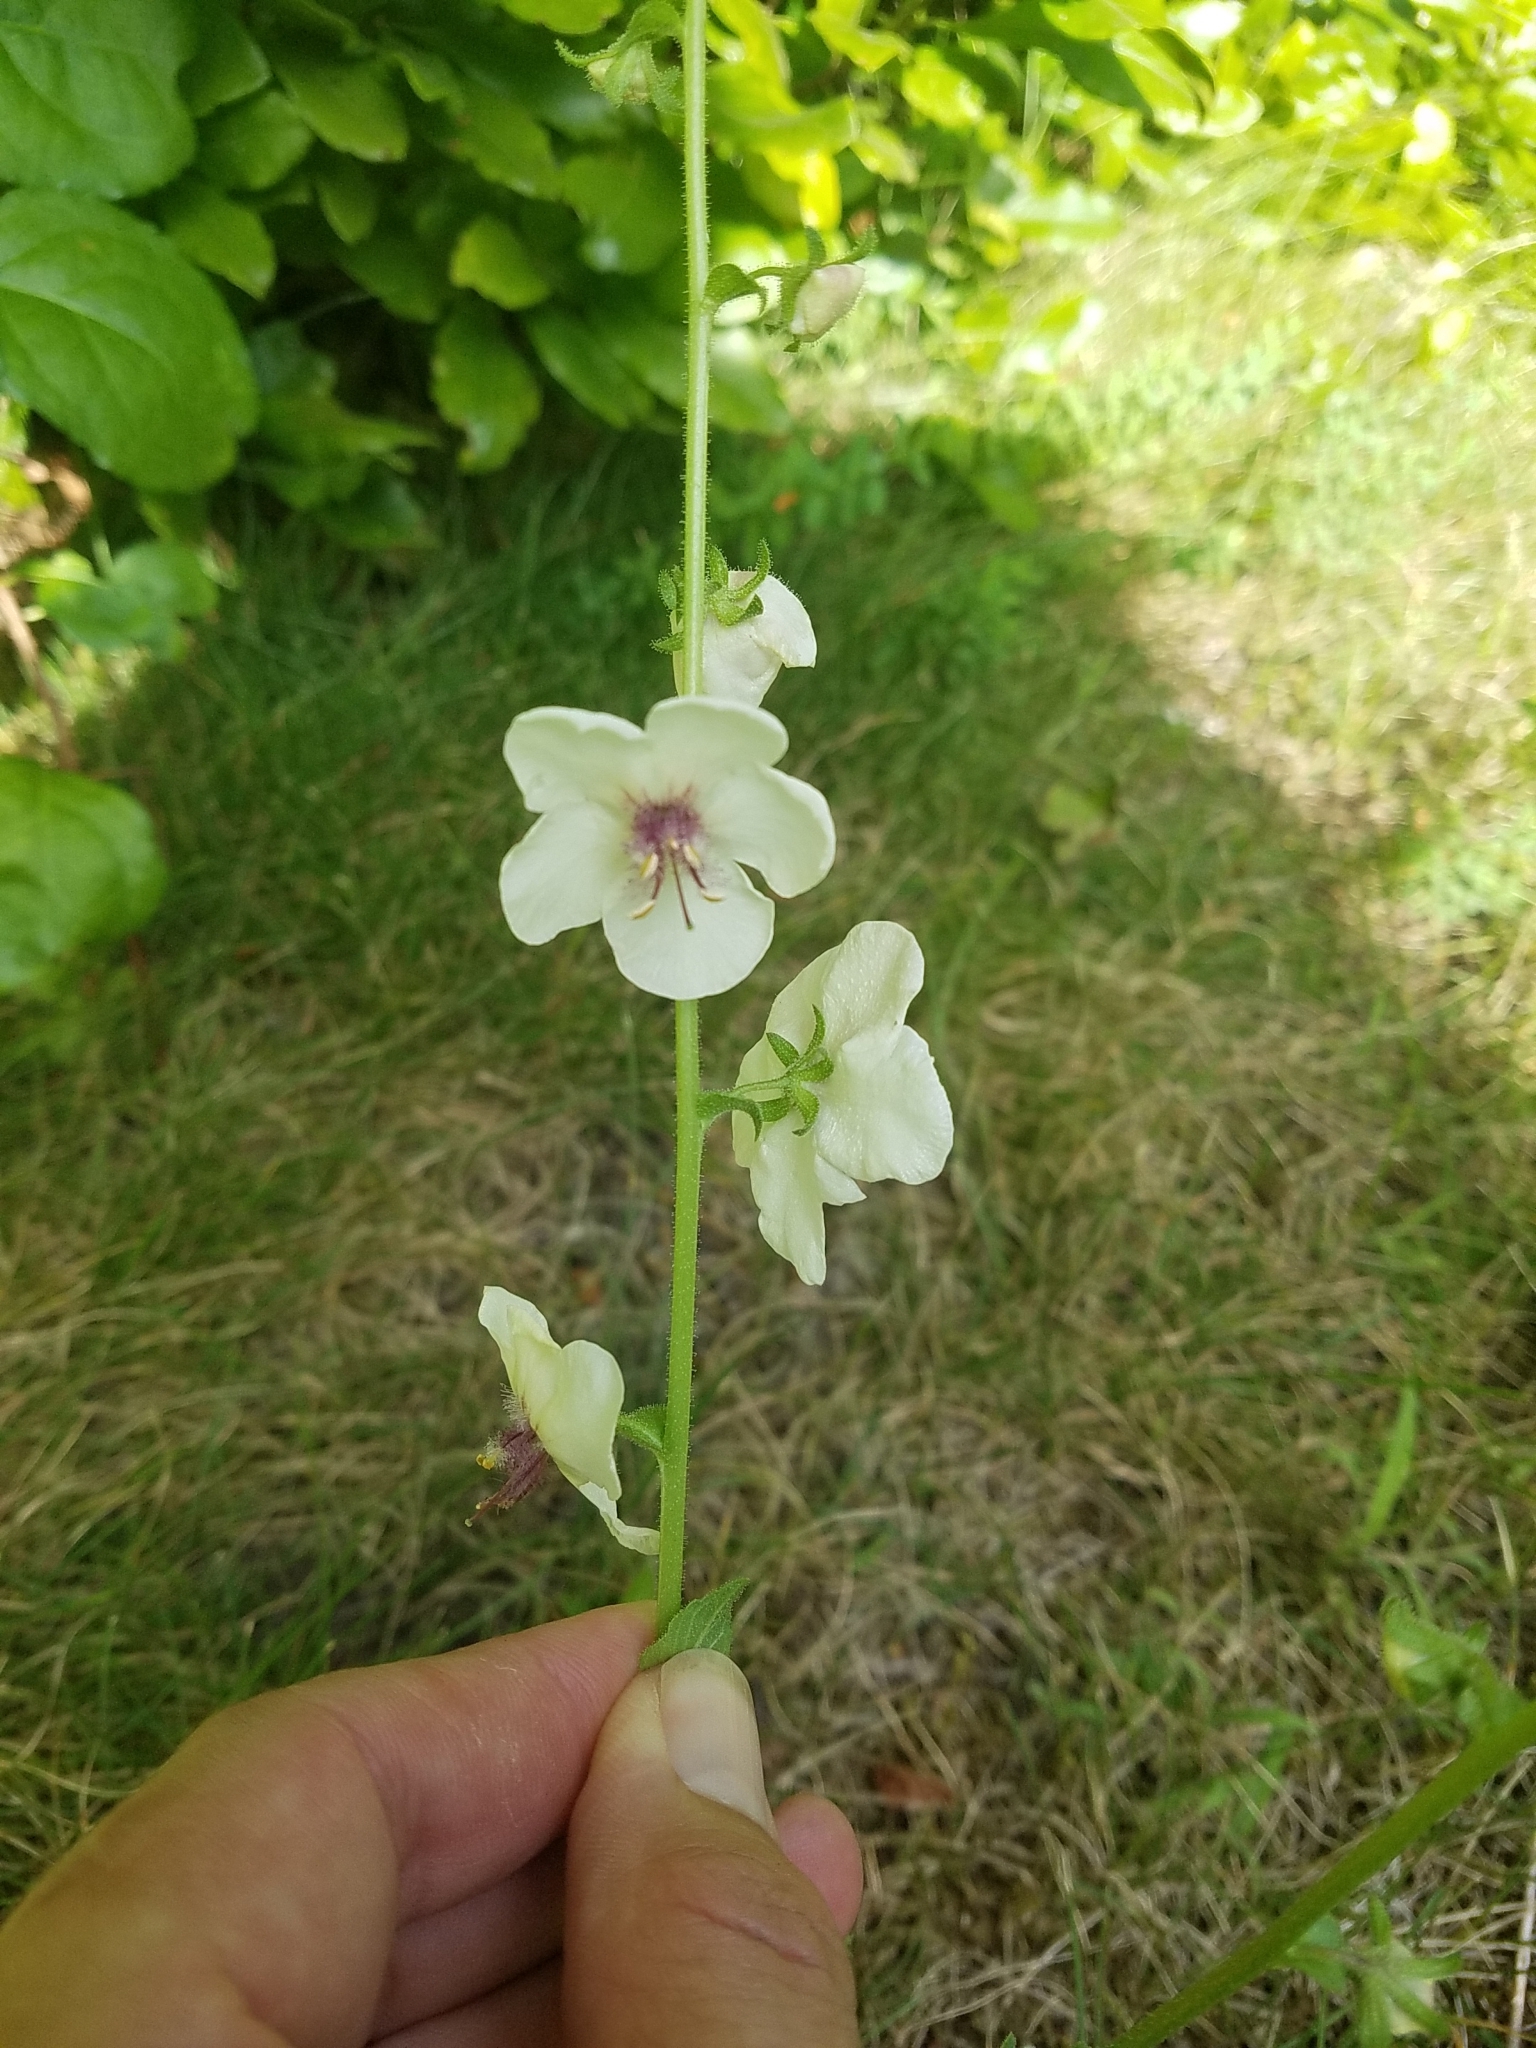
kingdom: Plantae
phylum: Tracheophyta
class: Magnoliopsida
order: Lamiales
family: Scrophulariaceae
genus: Verbascum
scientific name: Verbascum blattaria
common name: Moth mullein
